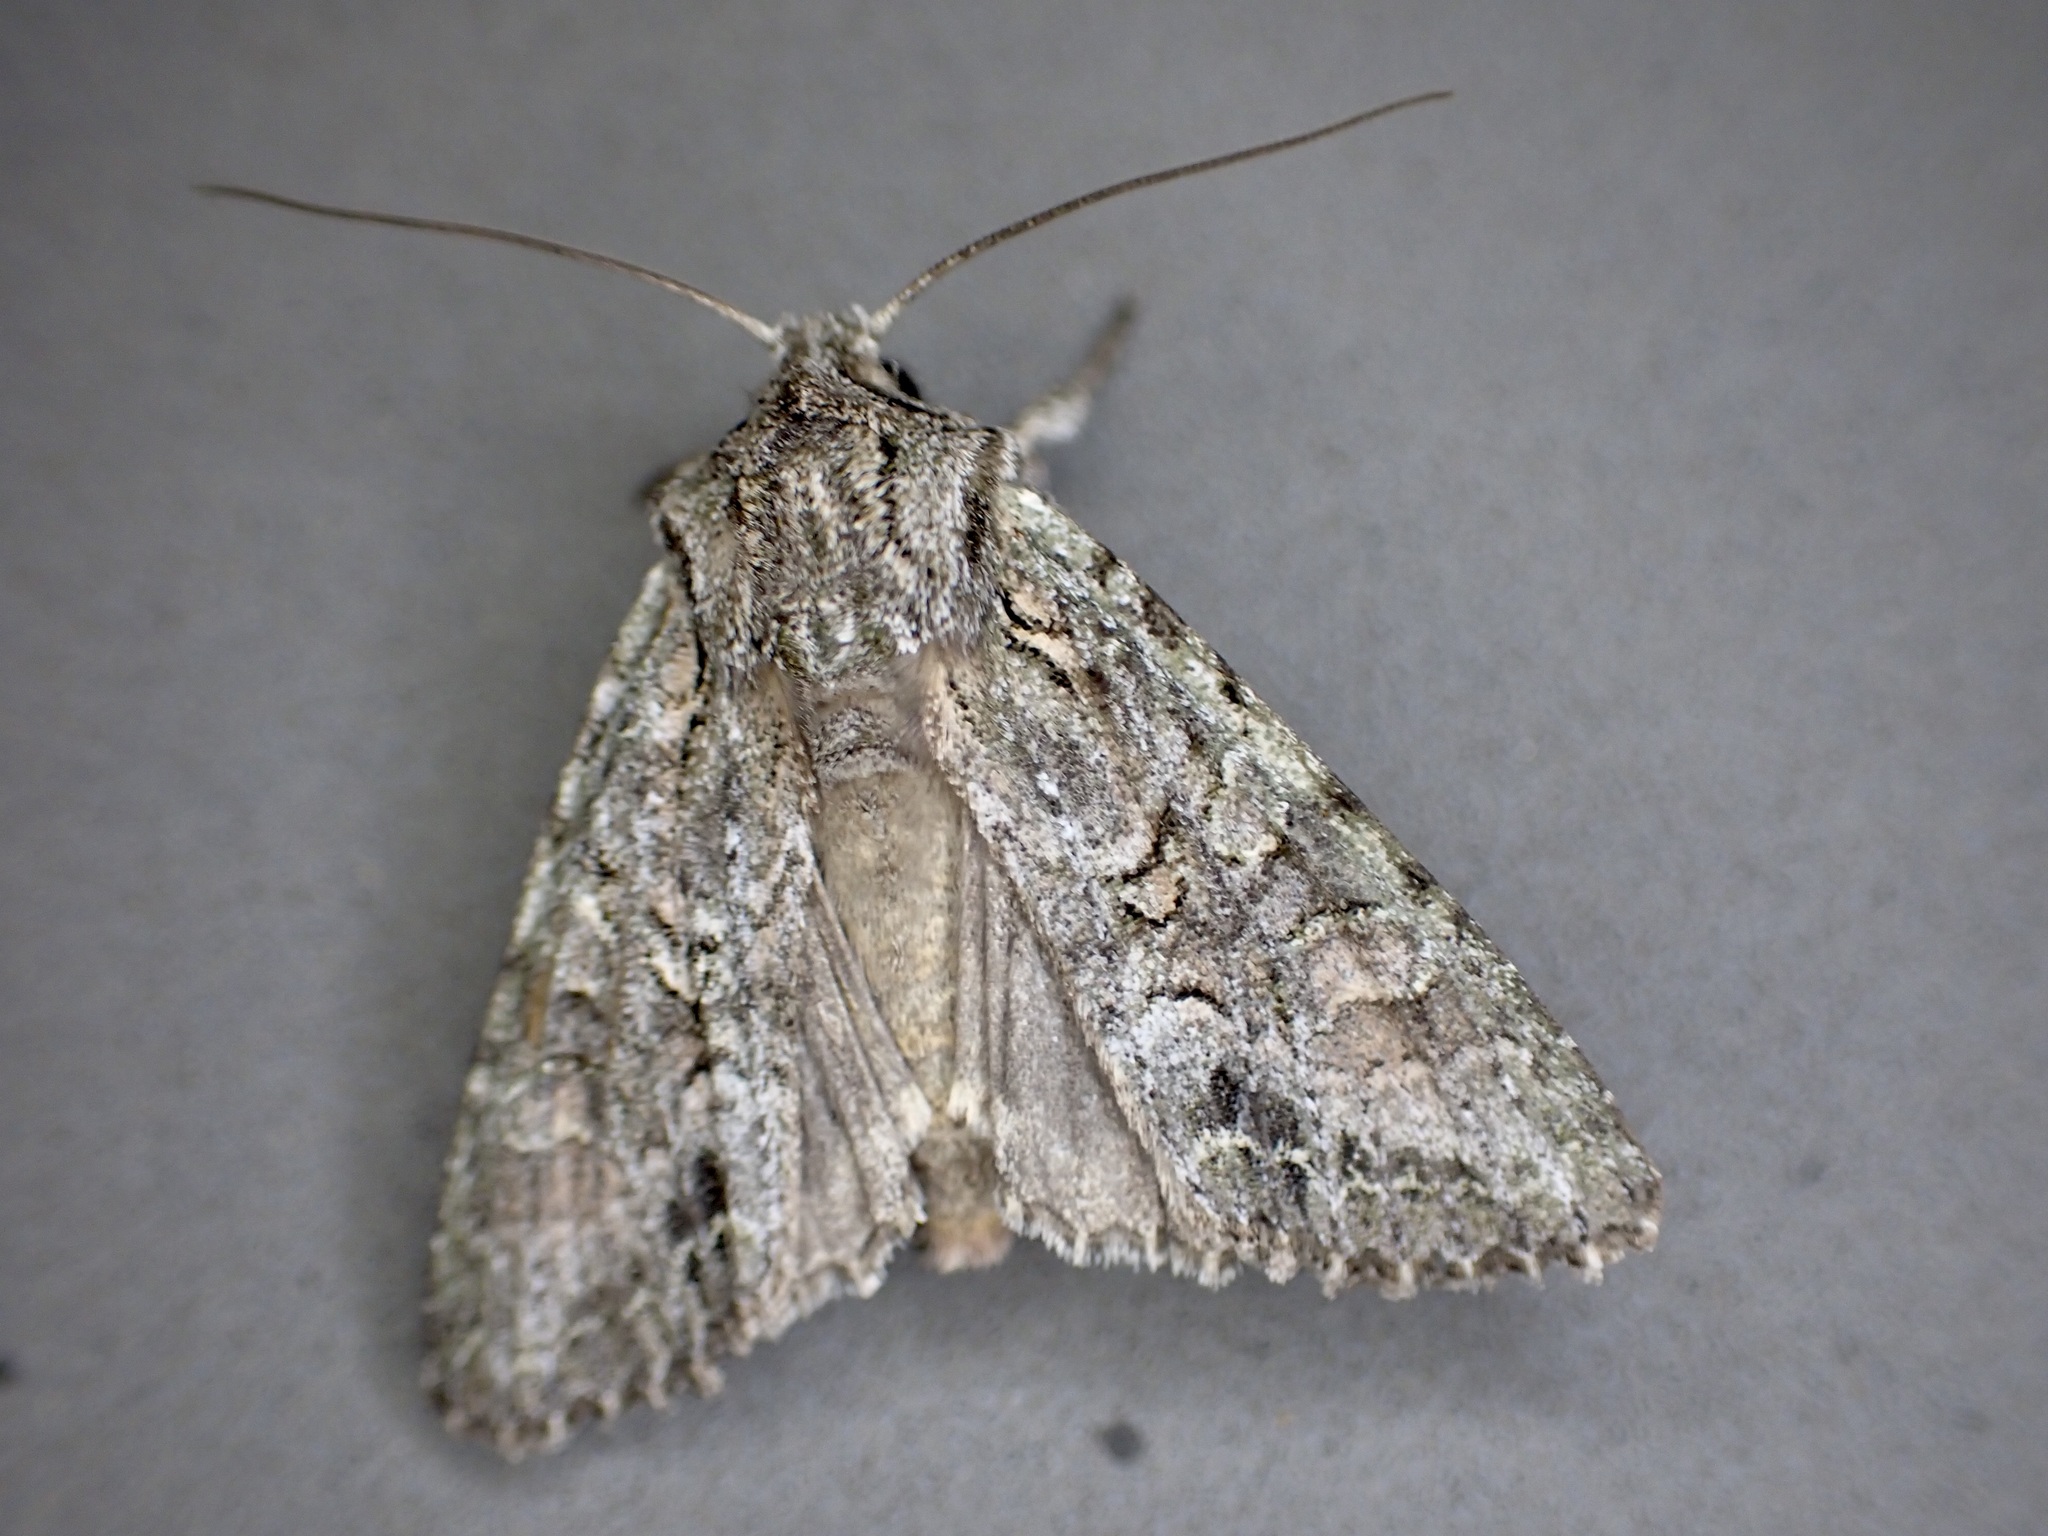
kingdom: Animalia
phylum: Arthropoda
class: Insecta
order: Lepidoptera
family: Noctuidae
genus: Ichneutica
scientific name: Ichneutica mutans
